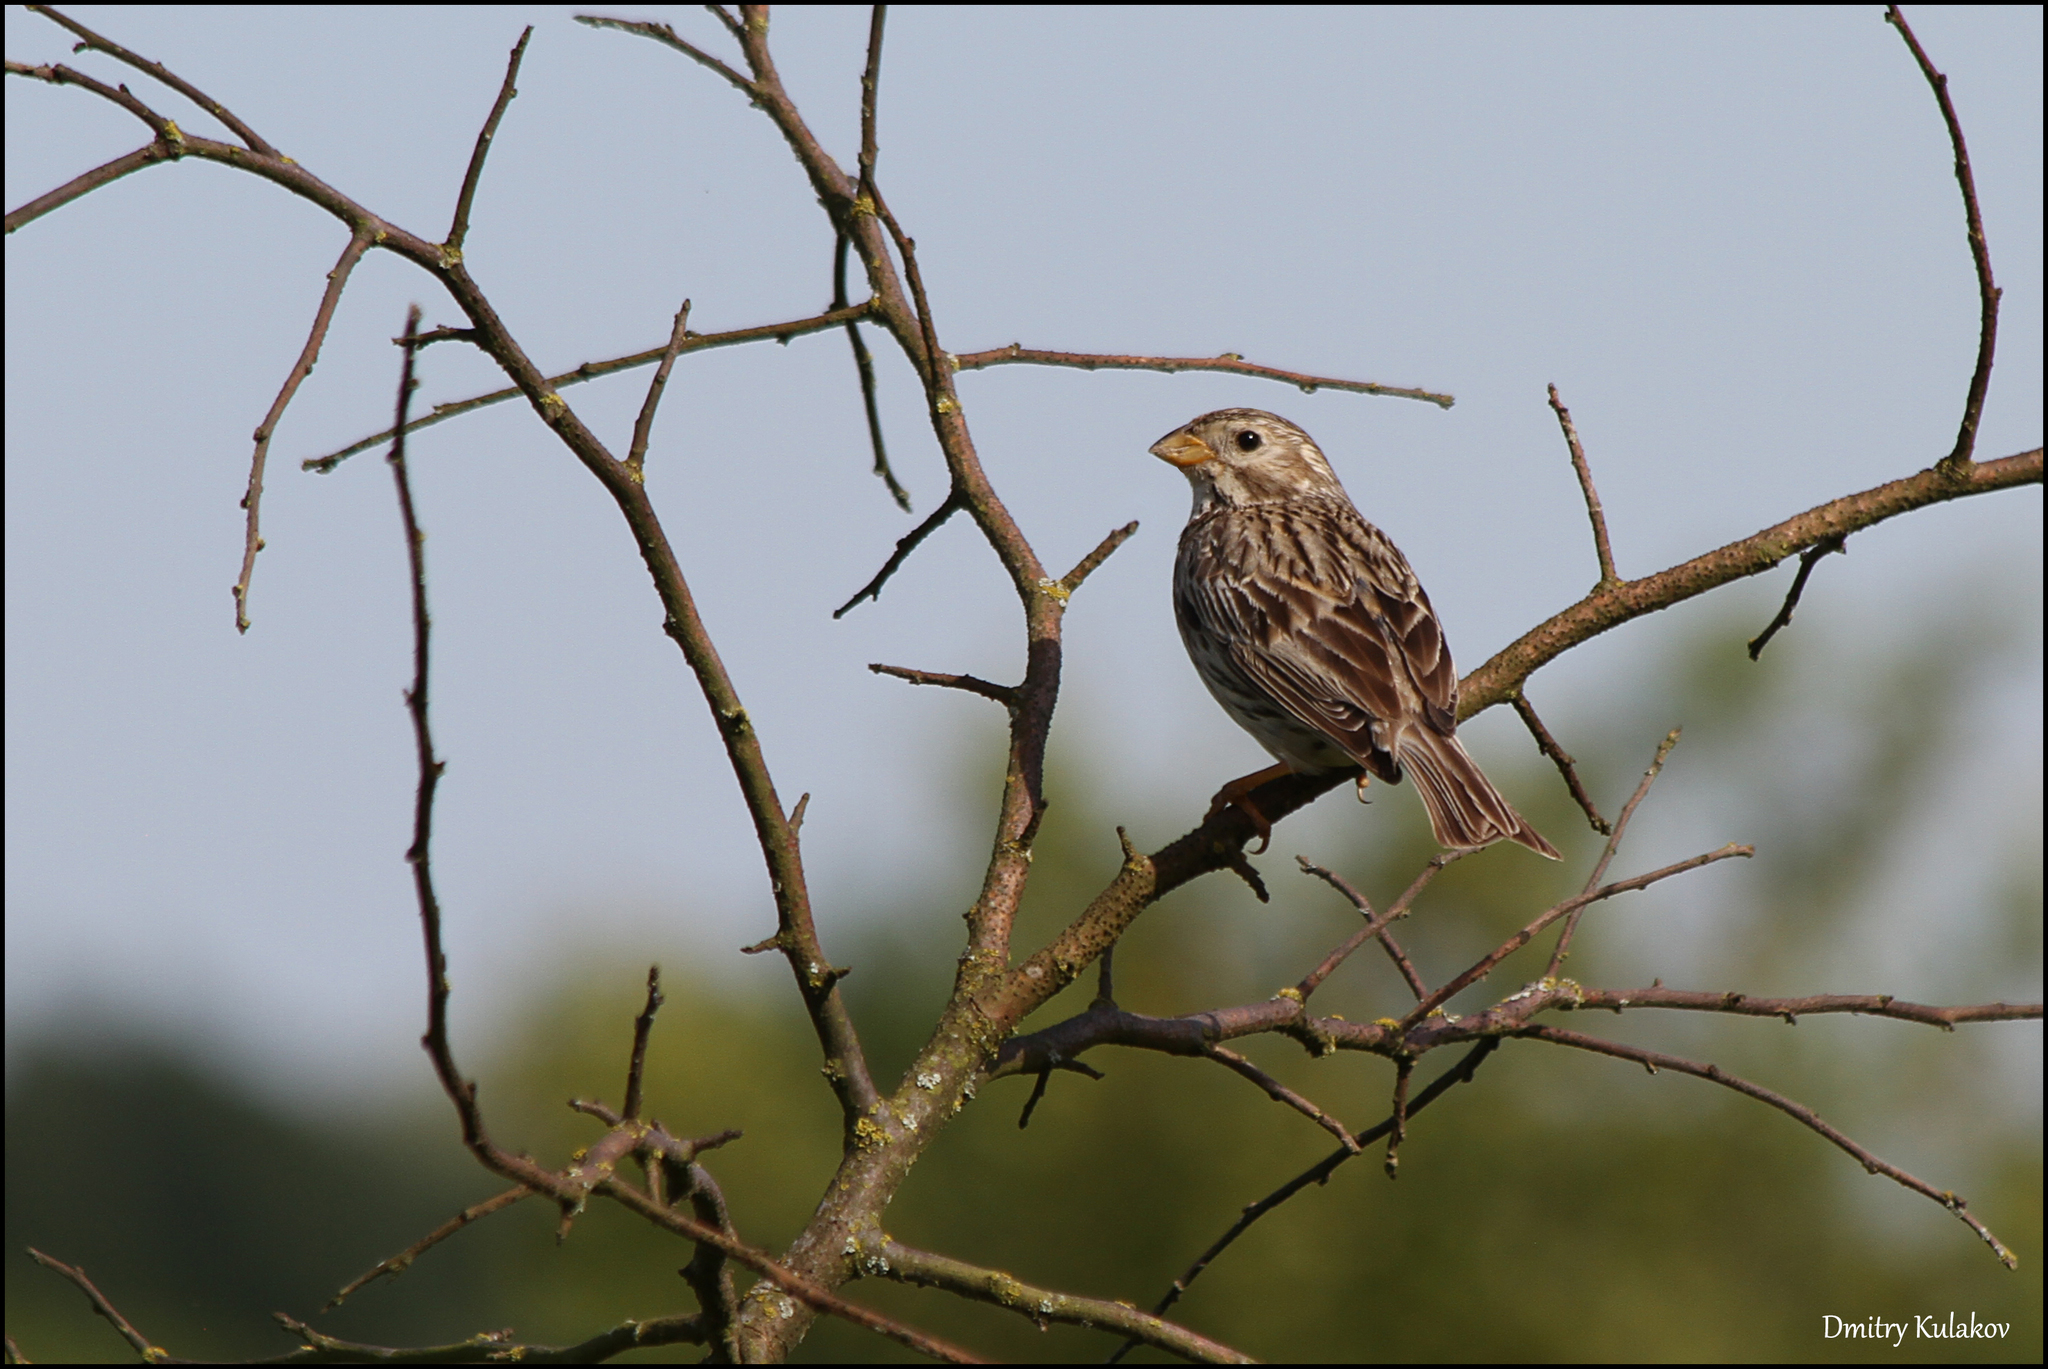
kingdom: Animalia
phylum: Chordata
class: Aves
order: Passeriformes
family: Emberizidae
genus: Emberiza
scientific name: Emberiza calandra
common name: Corn bunting
